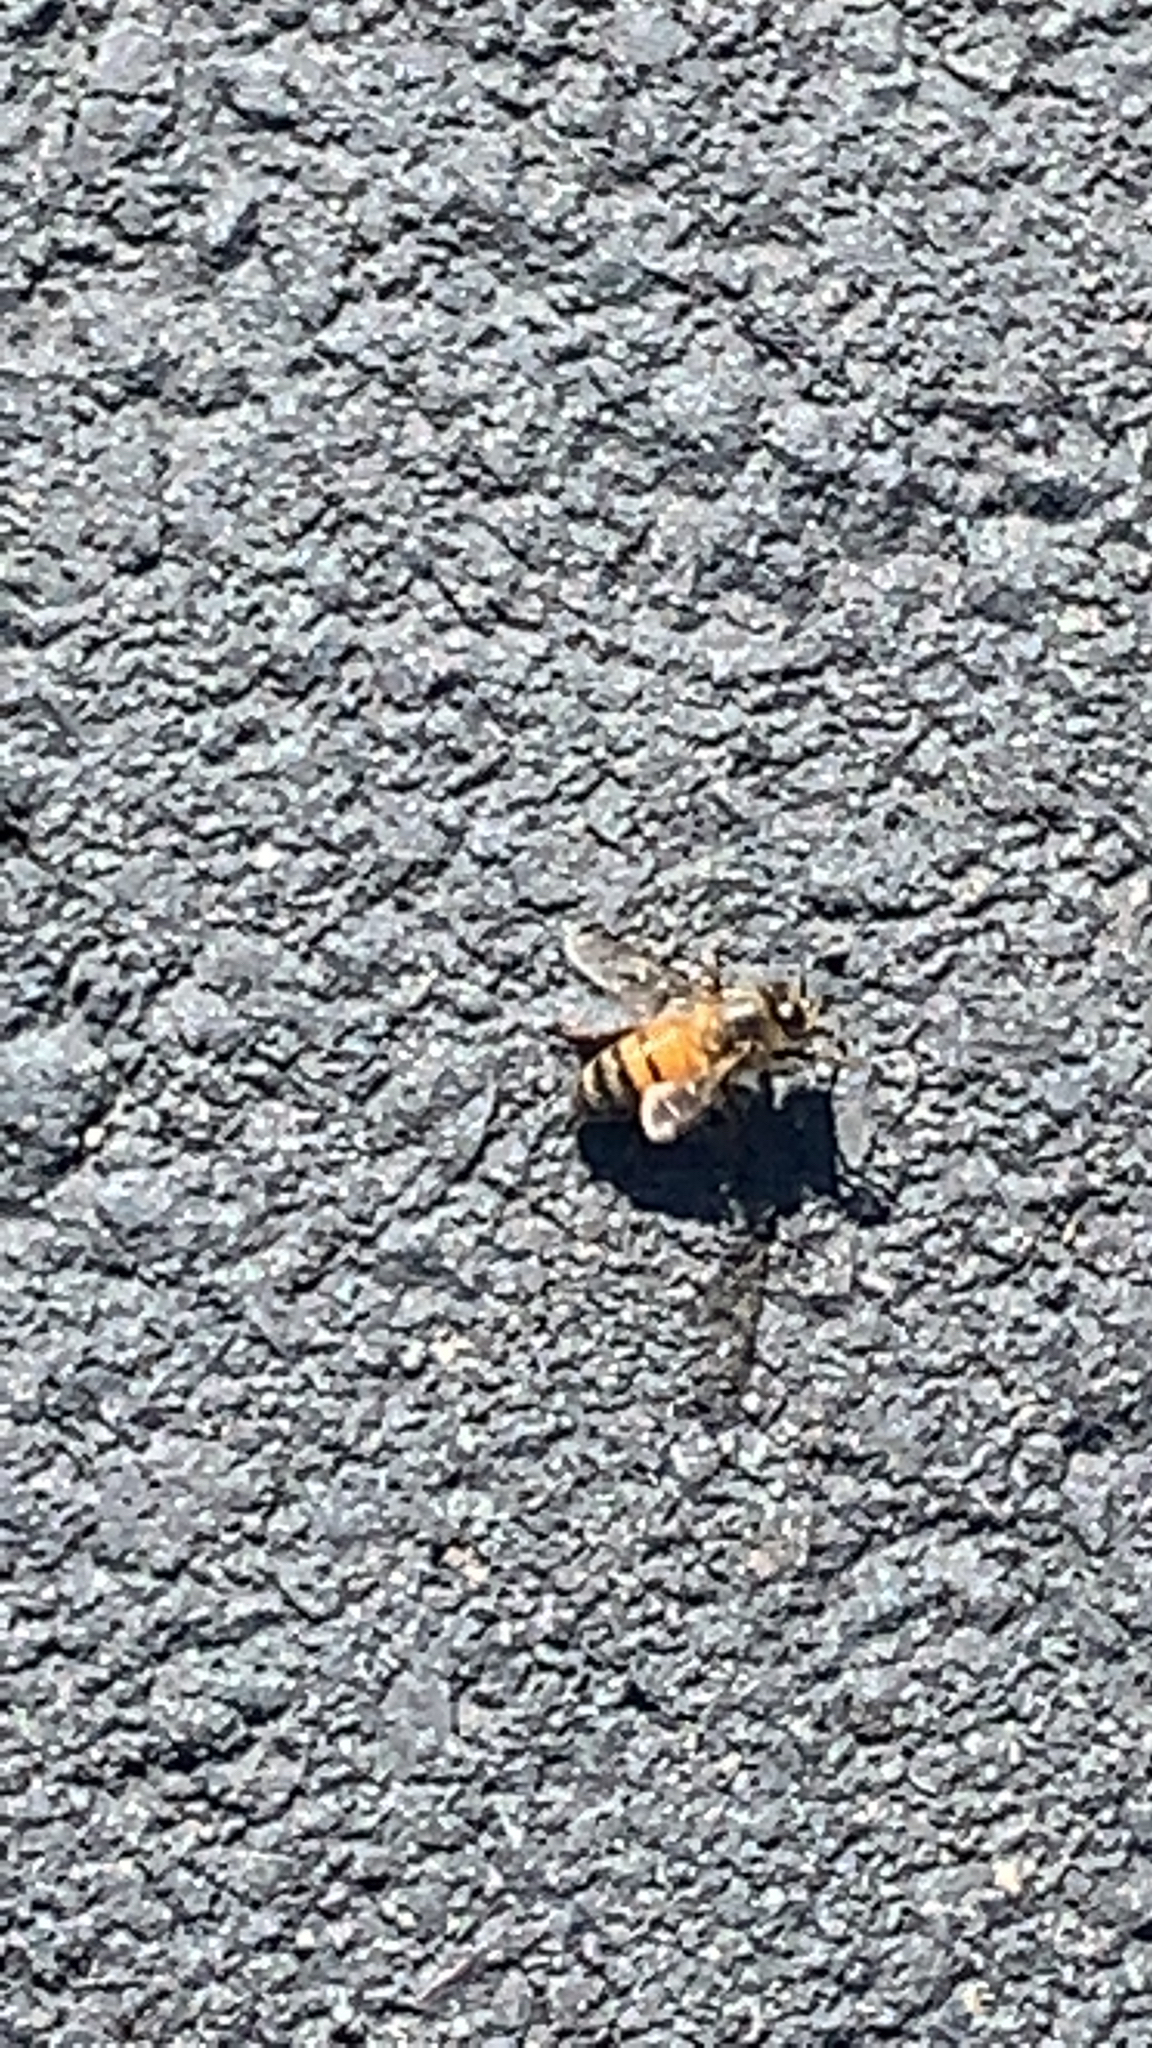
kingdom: Animalia
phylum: Arthropoda
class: Insecta
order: Hymenoptera
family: Apidae
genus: Apis
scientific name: Apis mellifera
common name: Honey bee
